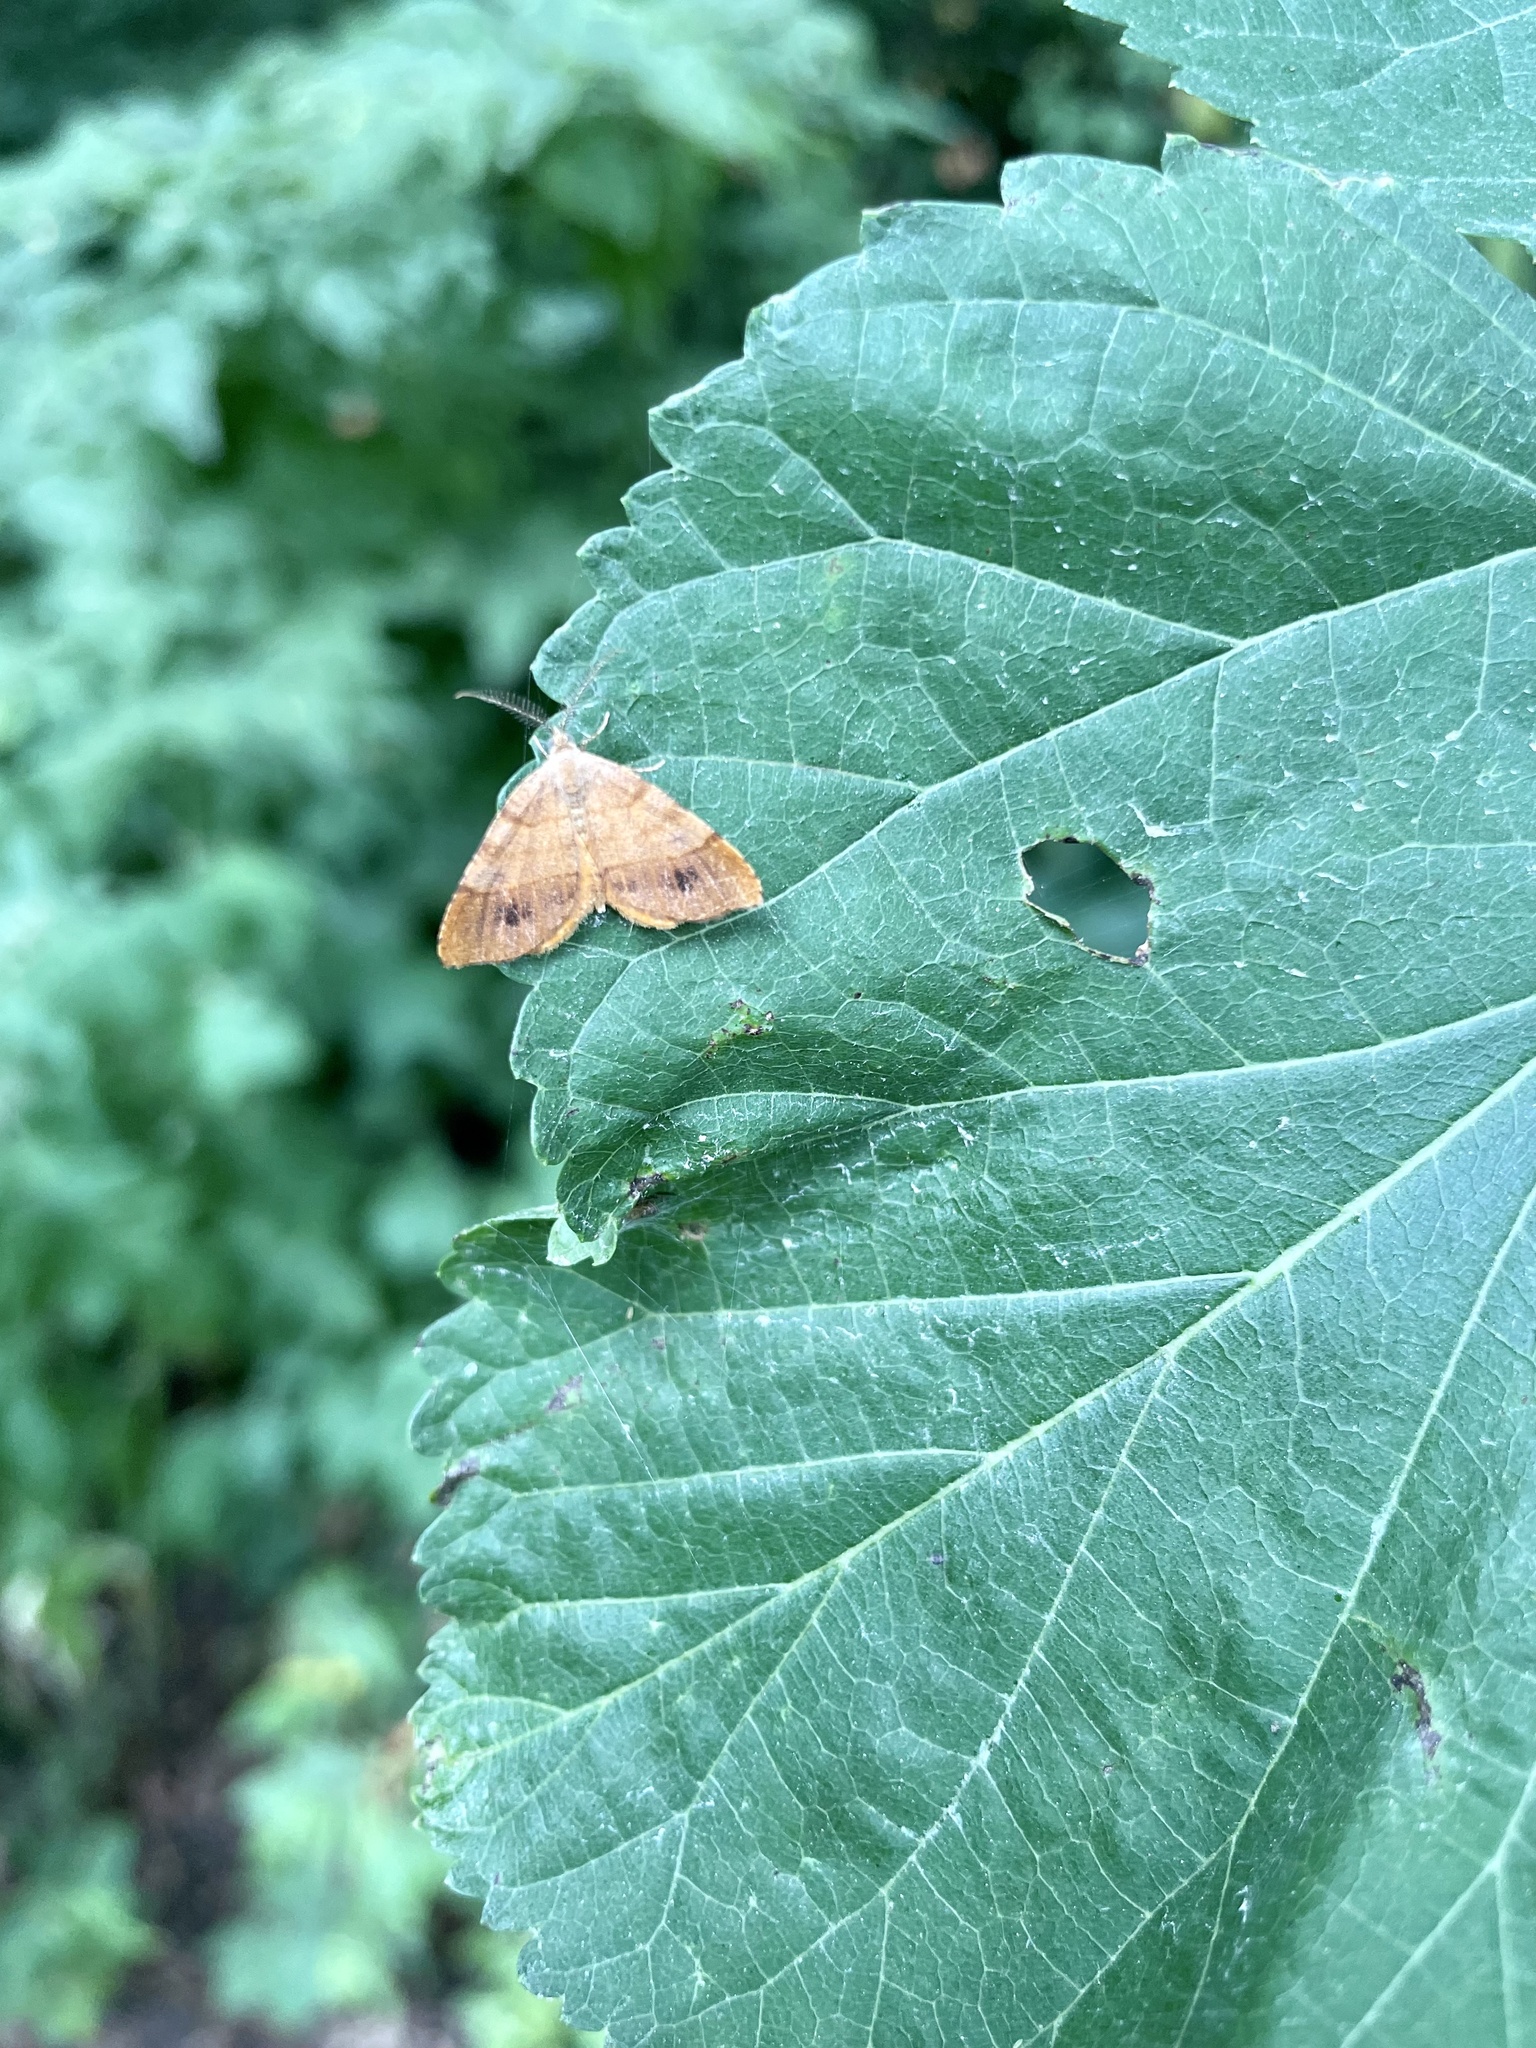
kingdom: Animalia
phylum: Arthropoda
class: Insecta
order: Lepidoptera
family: Geometridae
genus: Mellilla
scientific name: Mellilla xanthometata
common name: Orange wing moth
